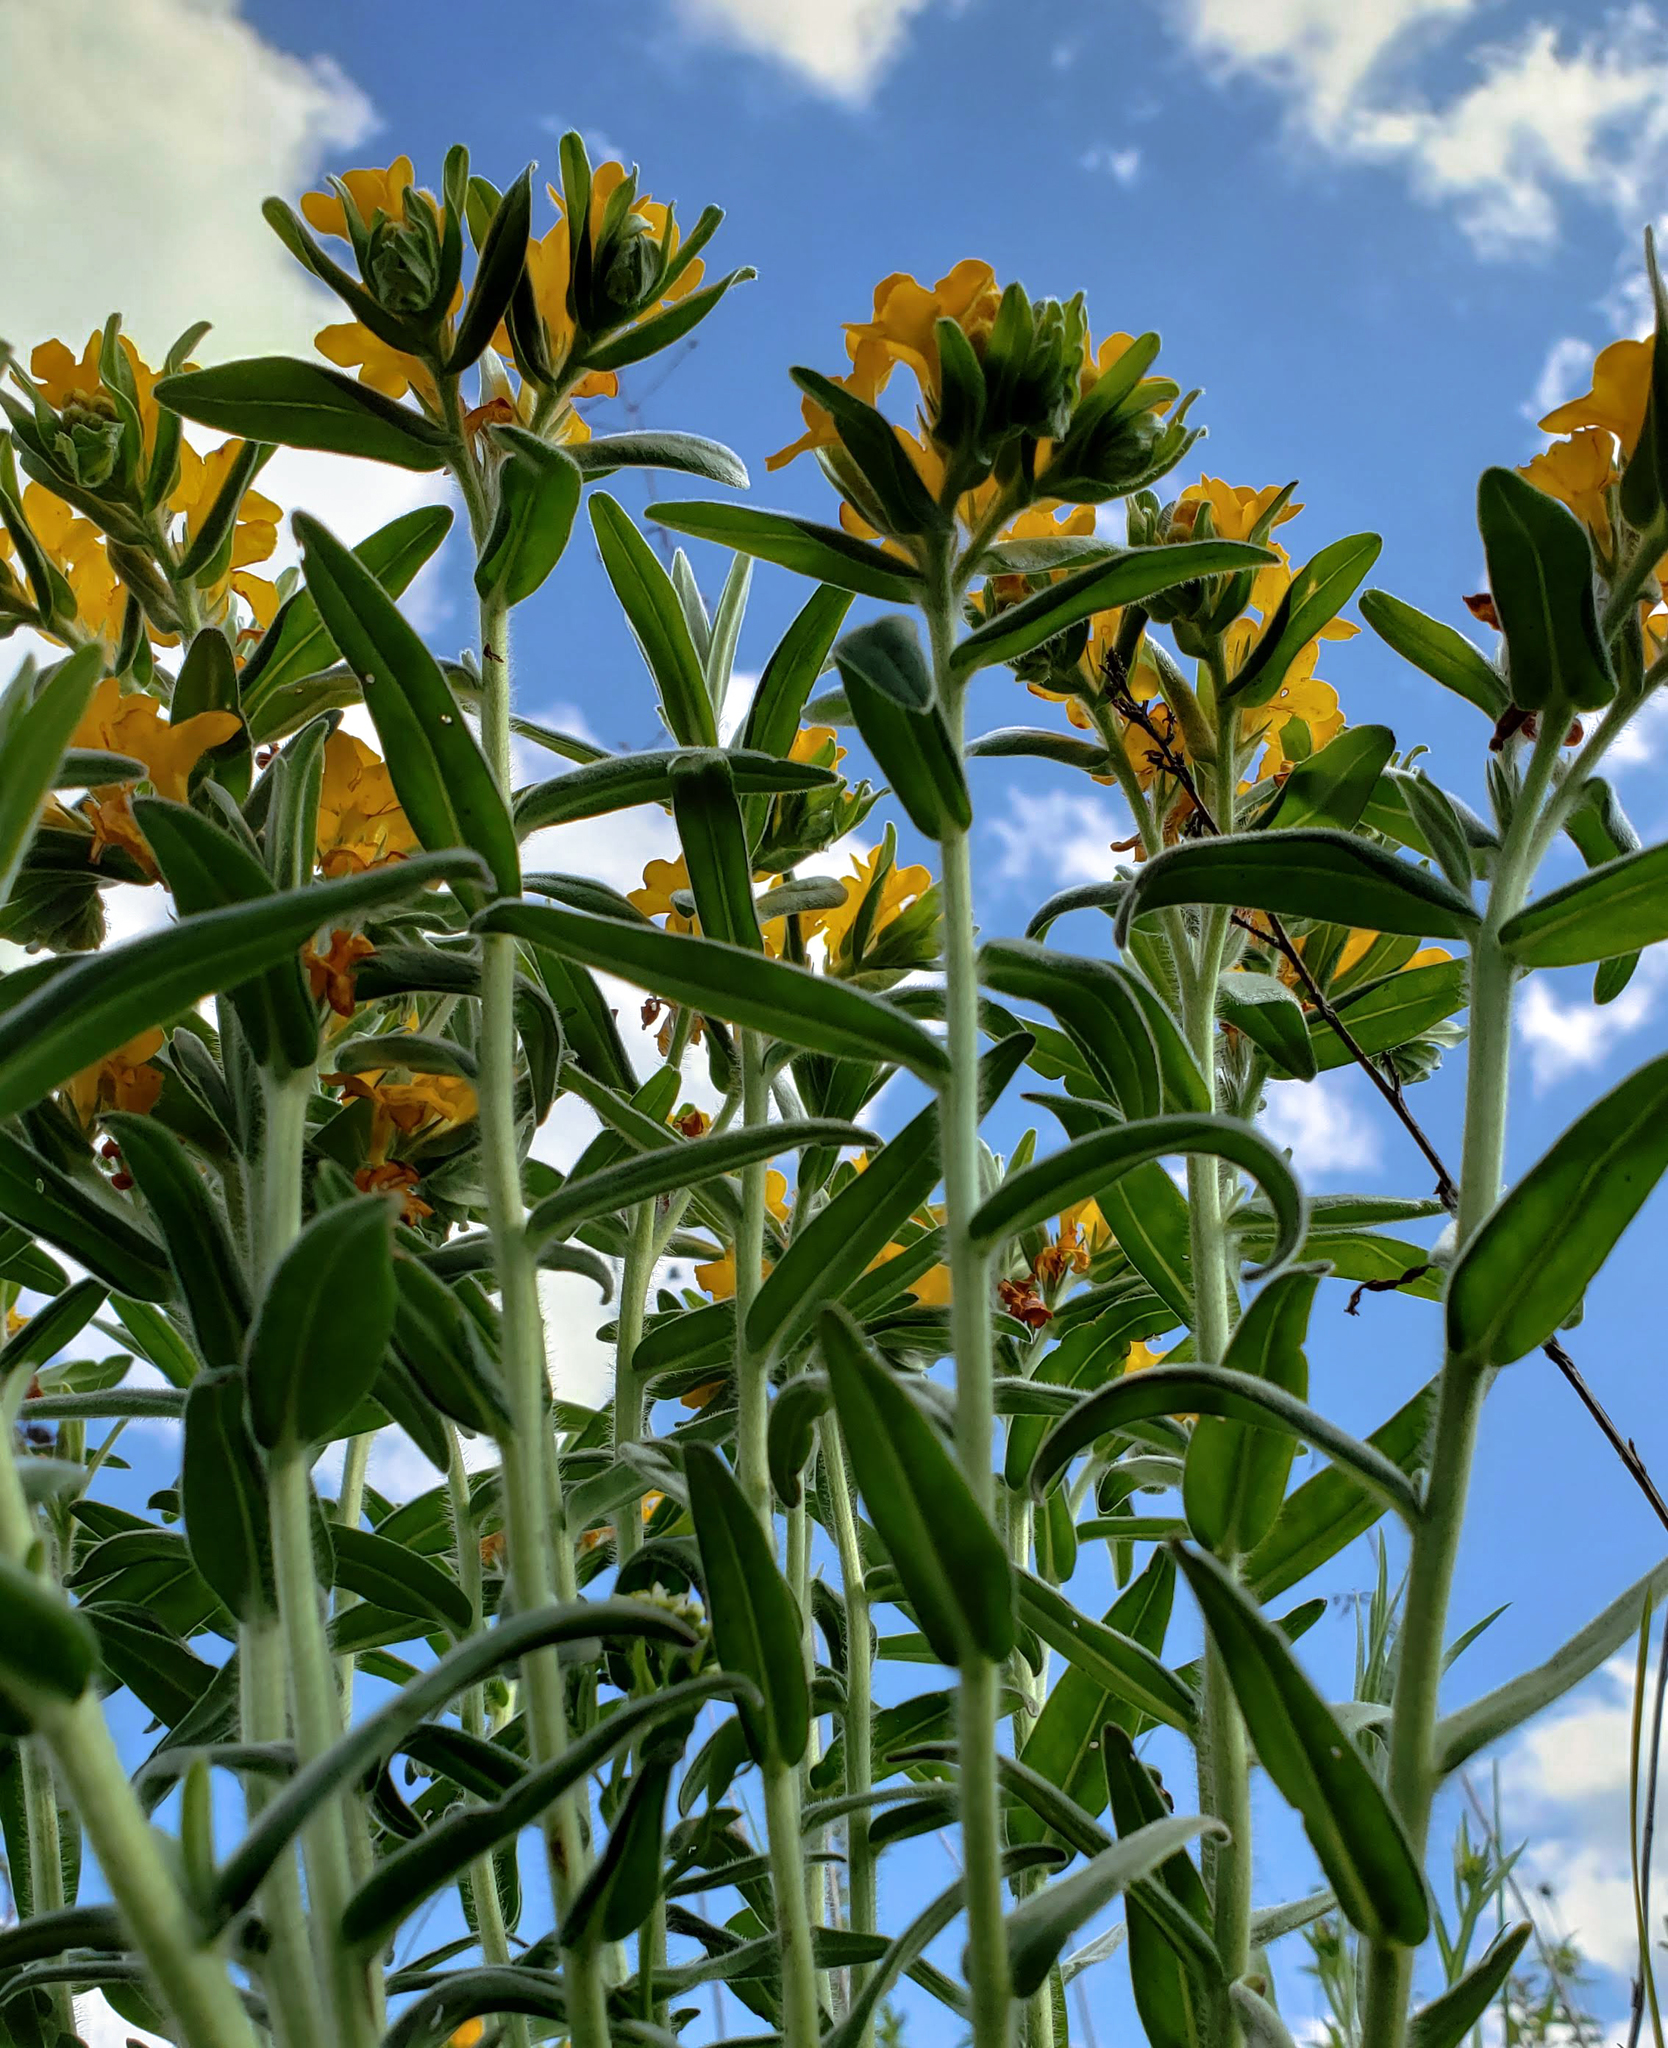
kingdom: Plantae
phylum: Tracheophyta
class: Magnoliopsida
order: Boraginales
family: Boraginaceae
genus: Lithospermum
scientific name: Lithospermum canescens
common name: Hoary puccoon
